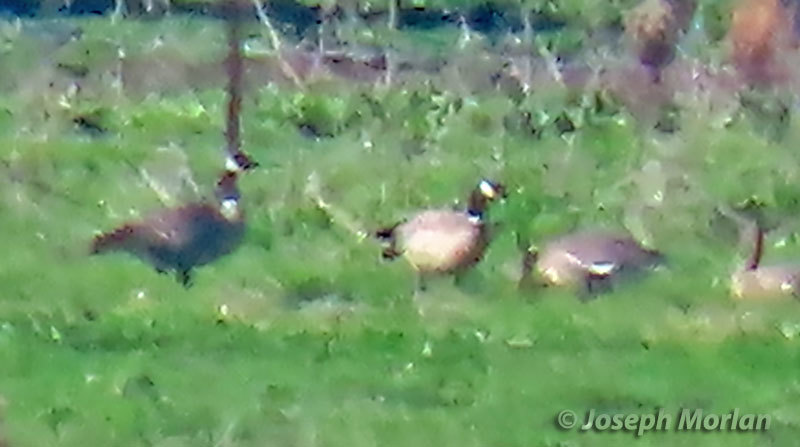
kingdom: Animalia
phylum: Chordata
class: Aves
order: Anseriformes
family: Anatidae
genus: Branta
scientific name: Branta hutchinsii
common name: Cackling goose
